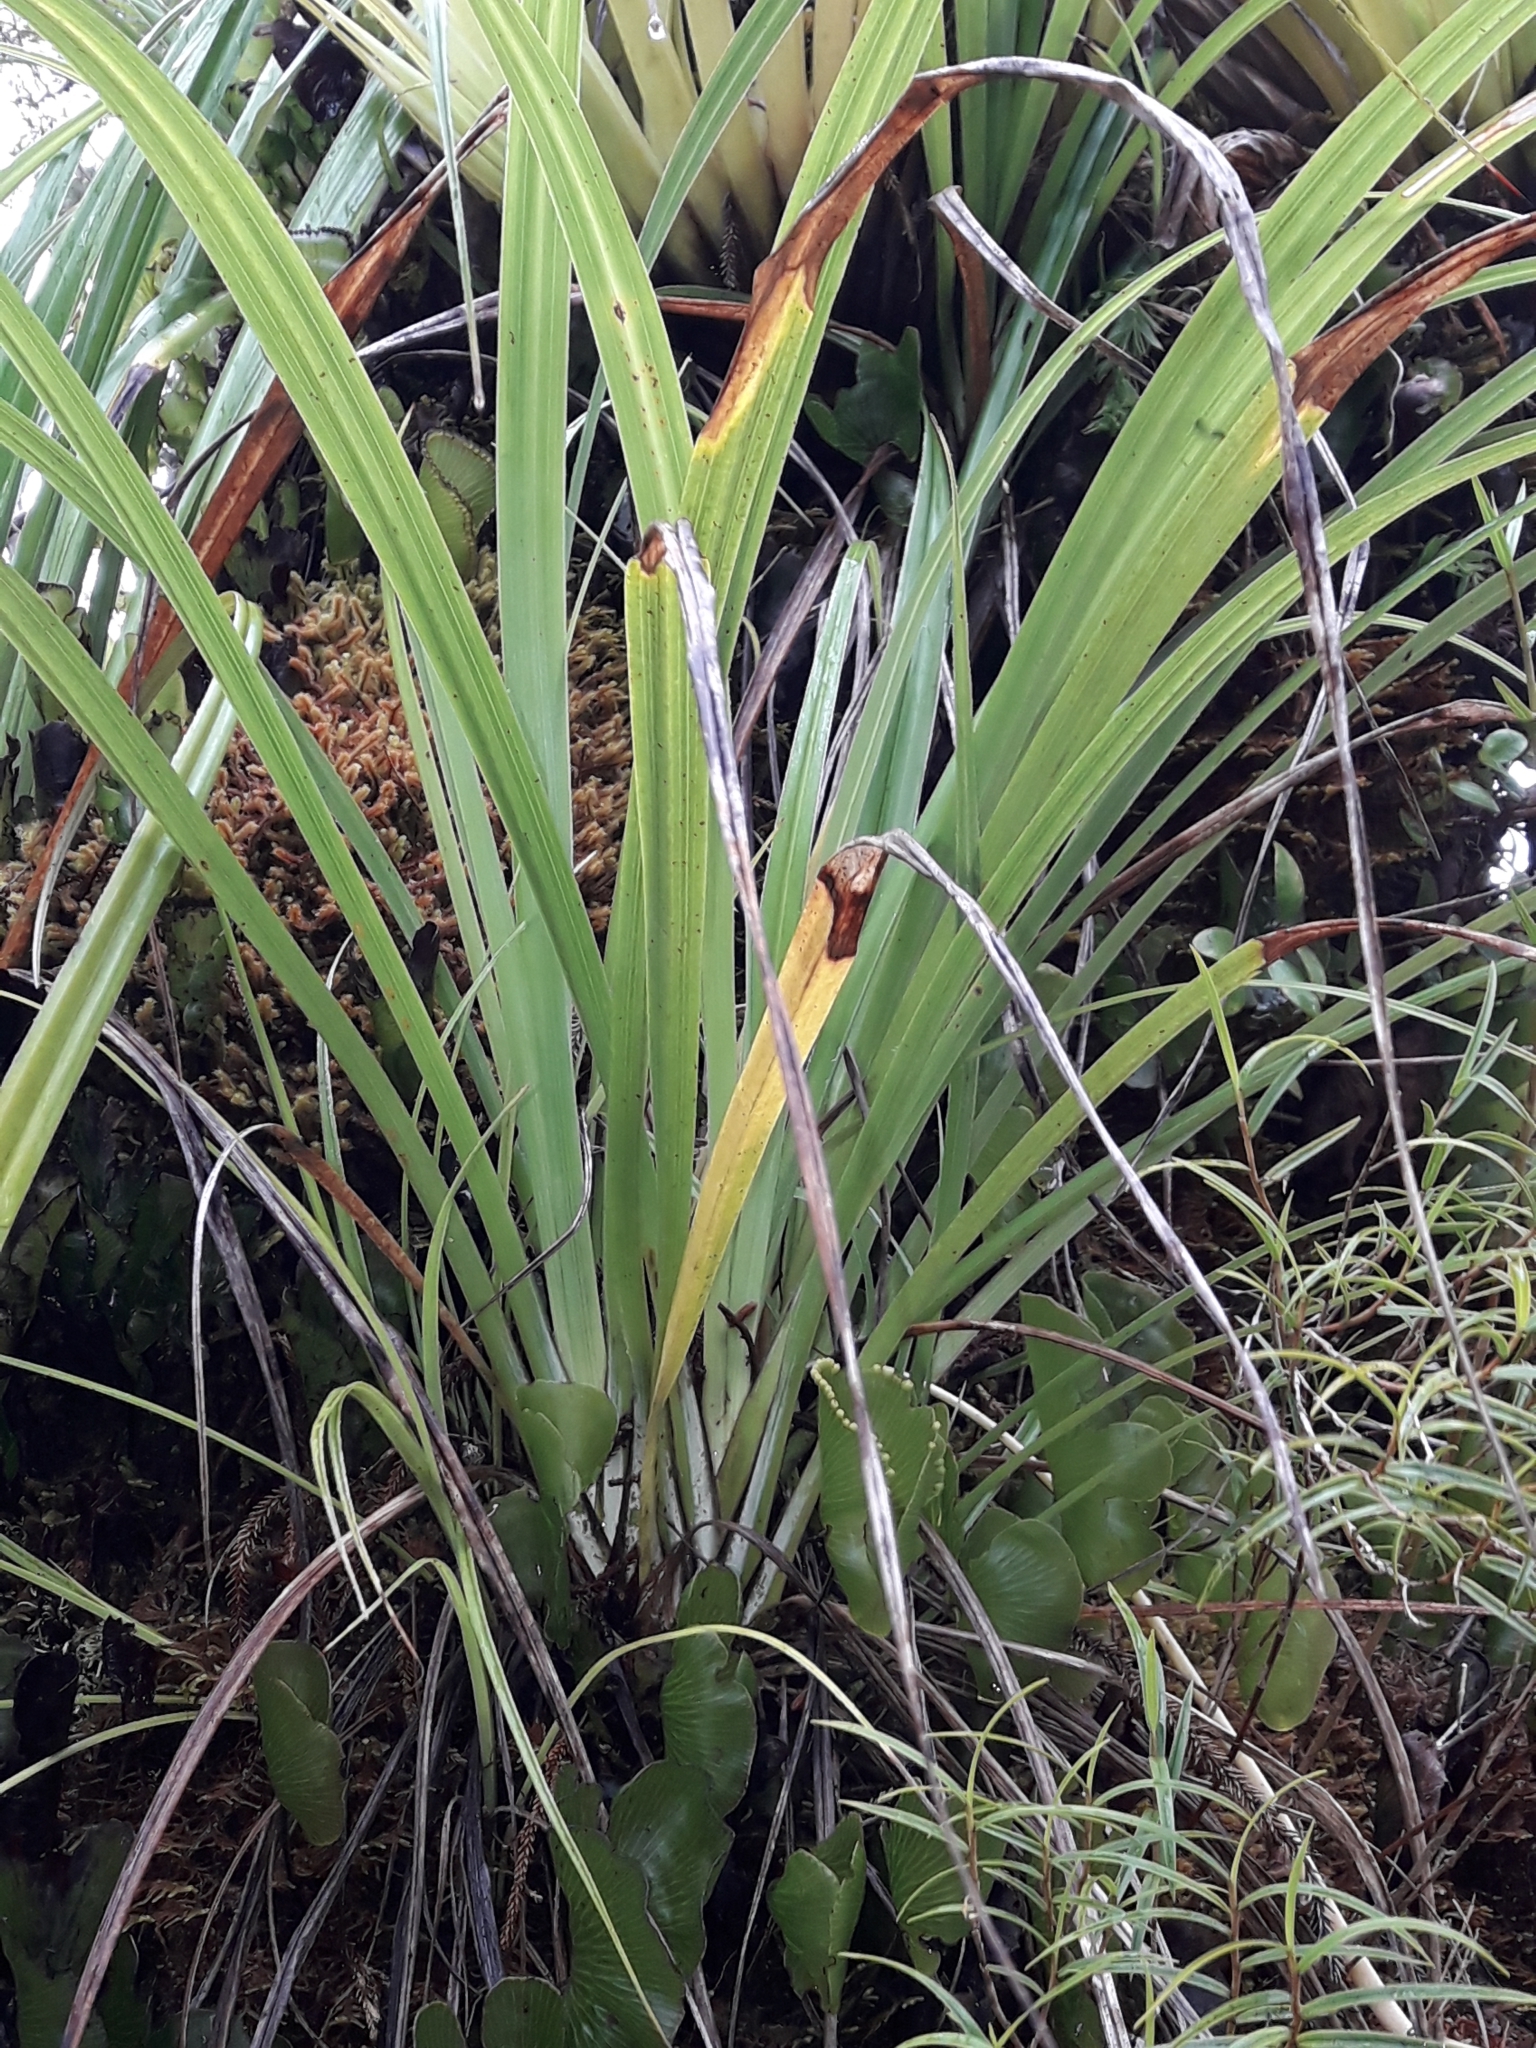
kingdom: Plantae
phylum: Tracheophyta
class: Liliopsida
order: Asparagales
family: Asteliaceae
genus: Astelia
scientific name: Astelia solandri
